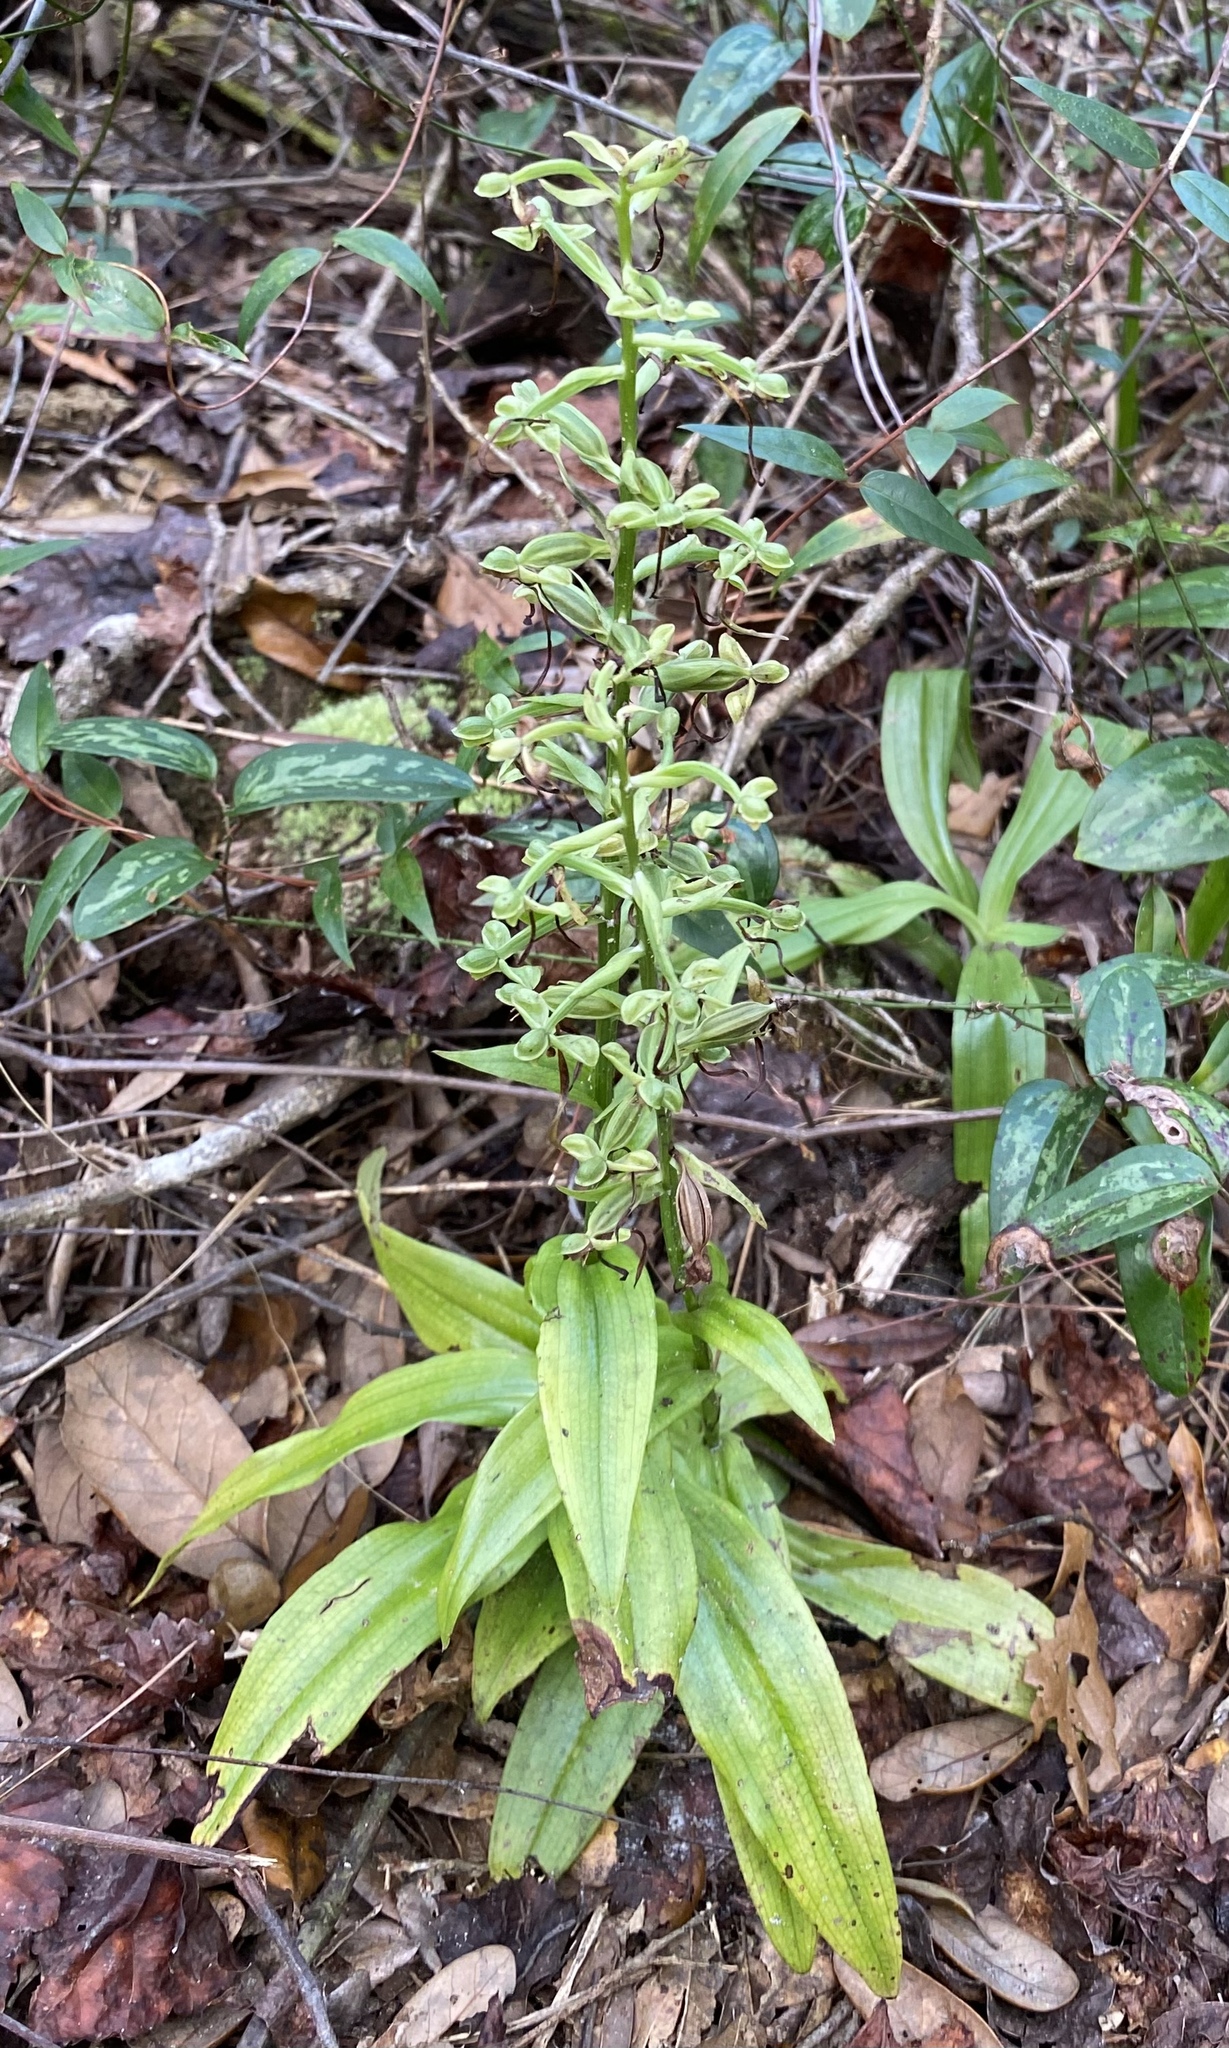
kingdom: Plantae
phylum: Tracheophyta
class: Liliopsida
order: Asparagales
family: Orchidaceae
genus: Habenaria
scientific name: Habenaria floribunda
